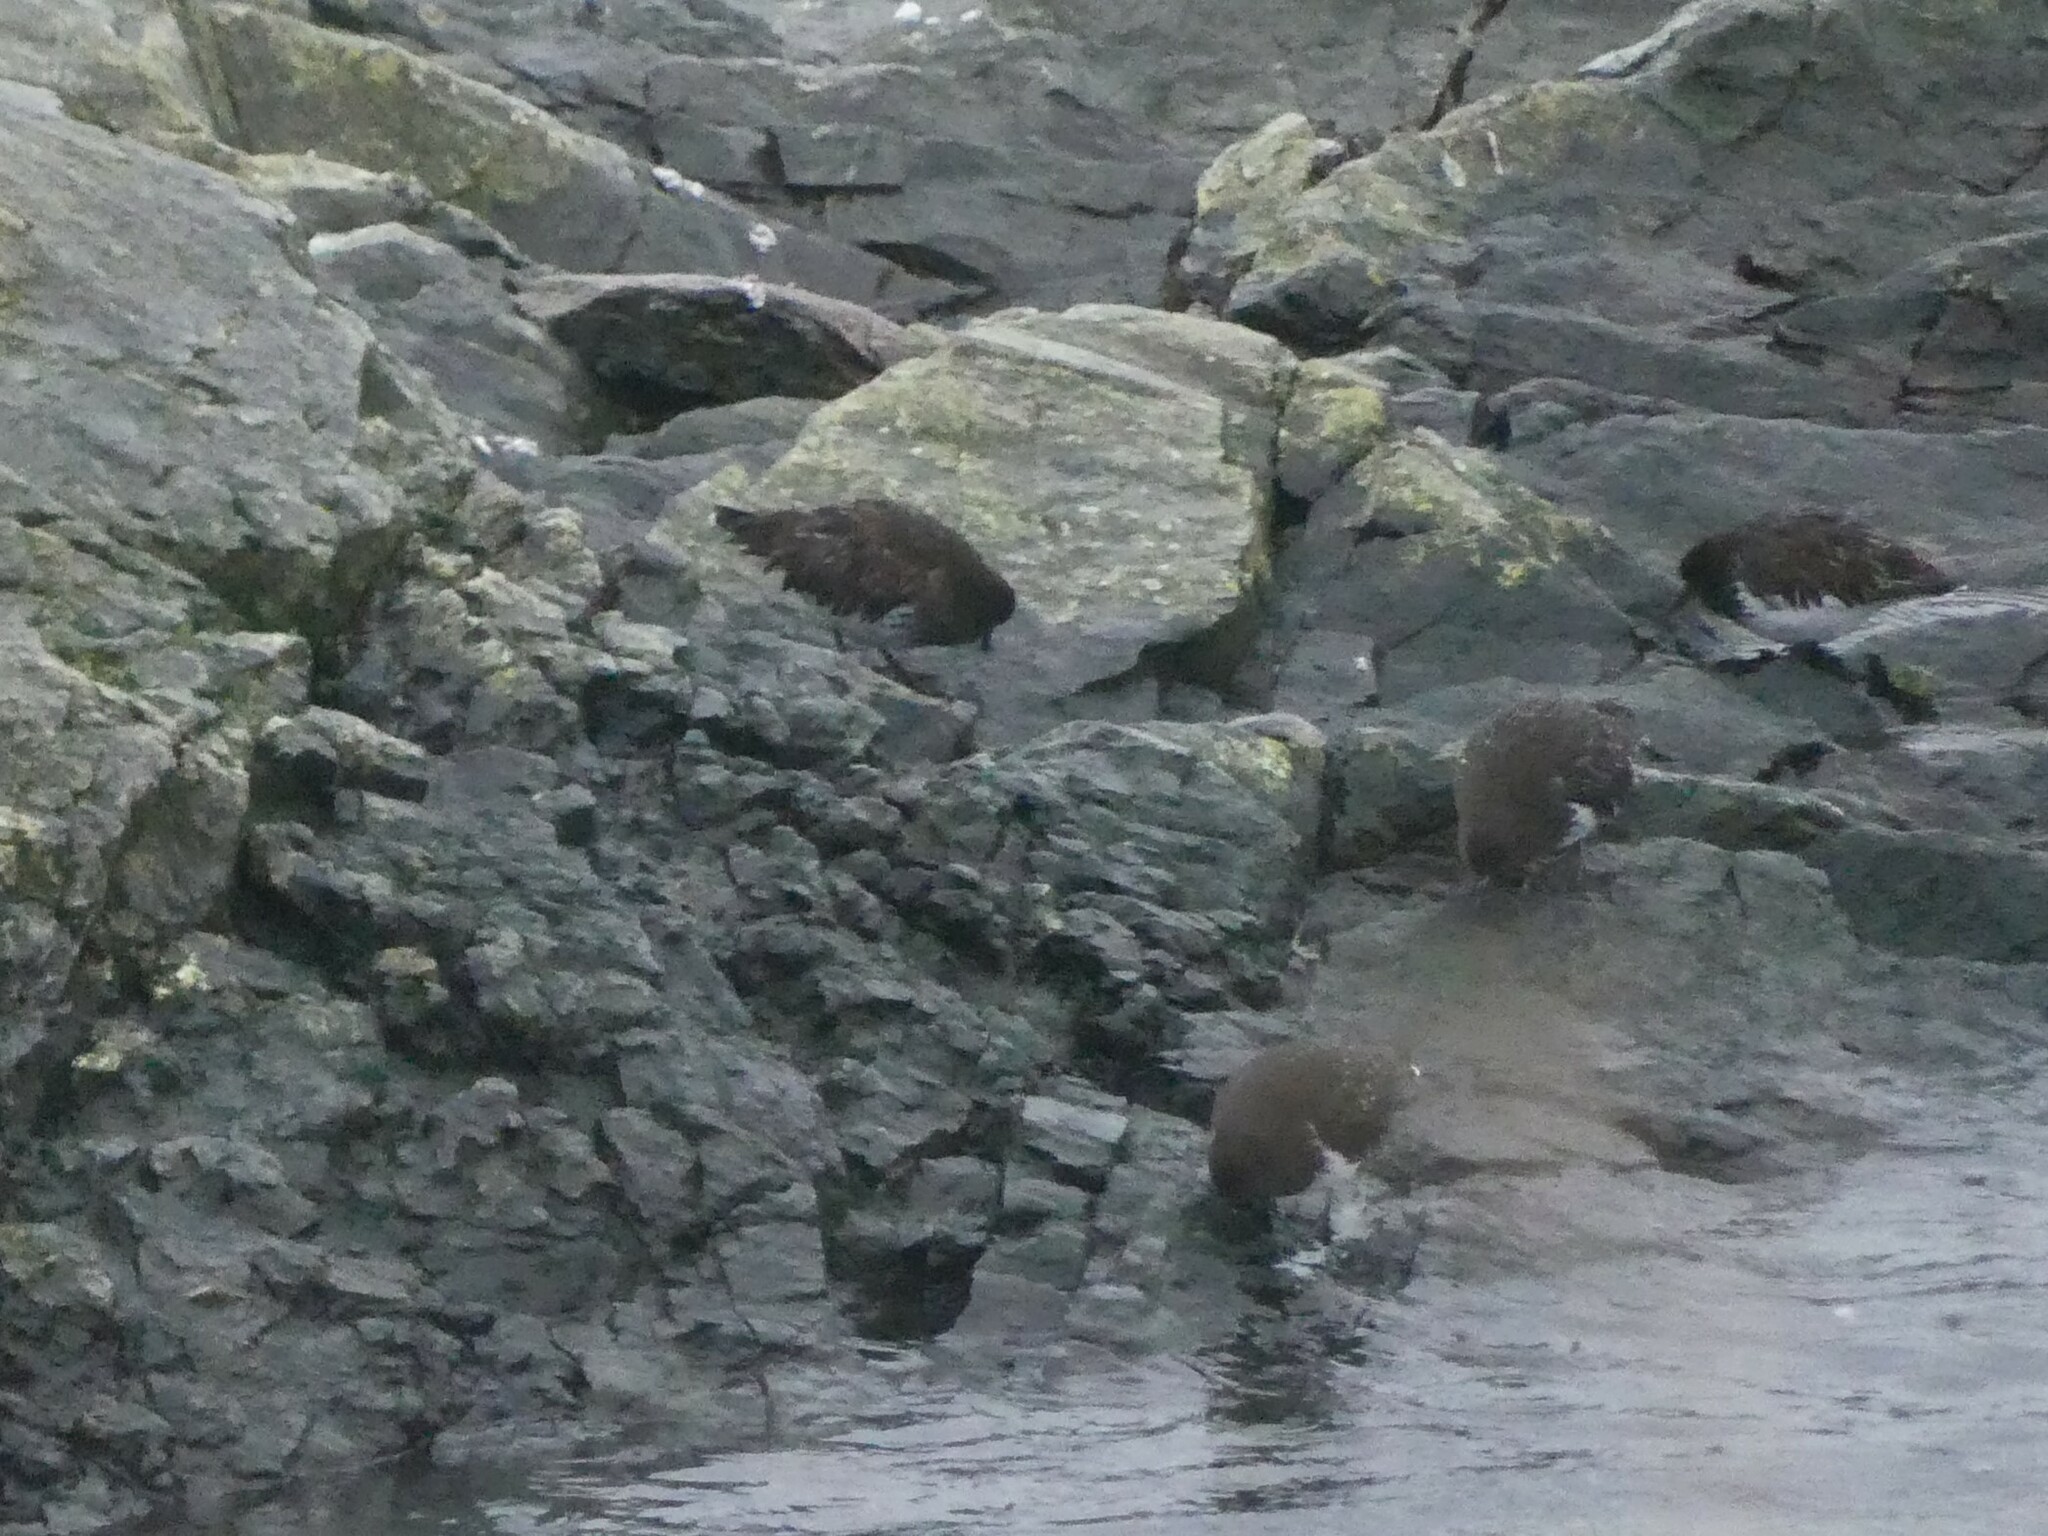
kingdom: Animalia
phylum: Chordata
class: Aves
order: Charadriiformes
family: Scolopacidae
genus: Arenaria
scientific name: Arenaria melanocephala
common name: Black turnstone
